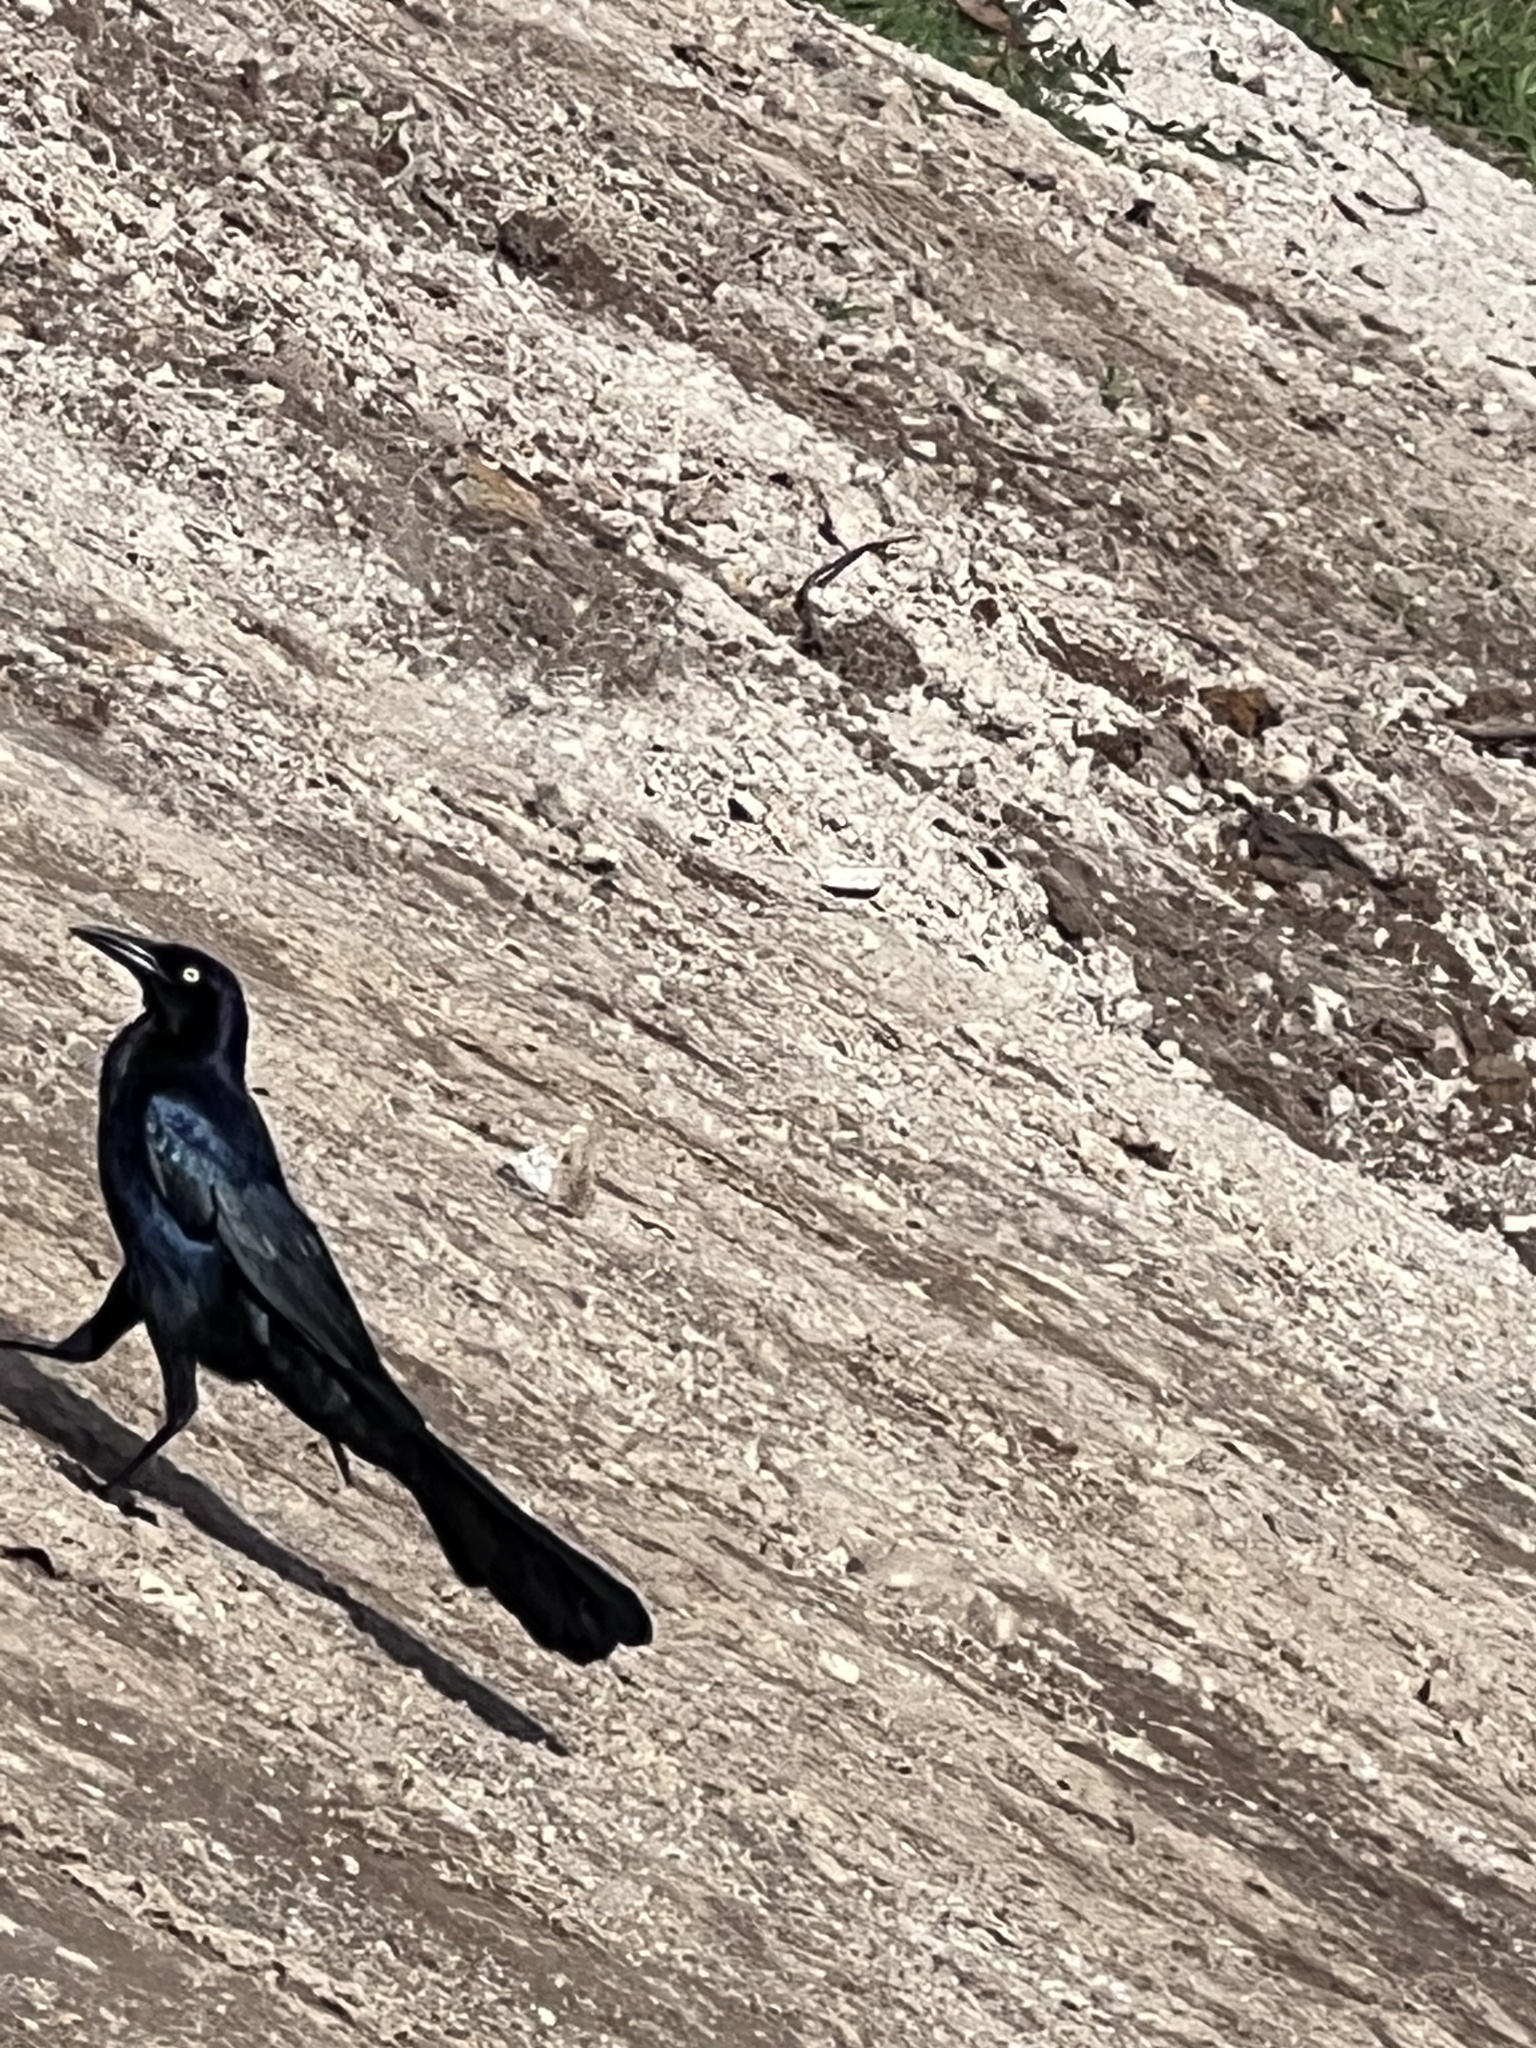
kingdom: Animalia
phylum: Chordata
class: Aves
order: Passeriformes
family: Icteridae
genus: Quiscalus
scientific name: Quiscalus mexicanus
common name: Great-tailed grackle
